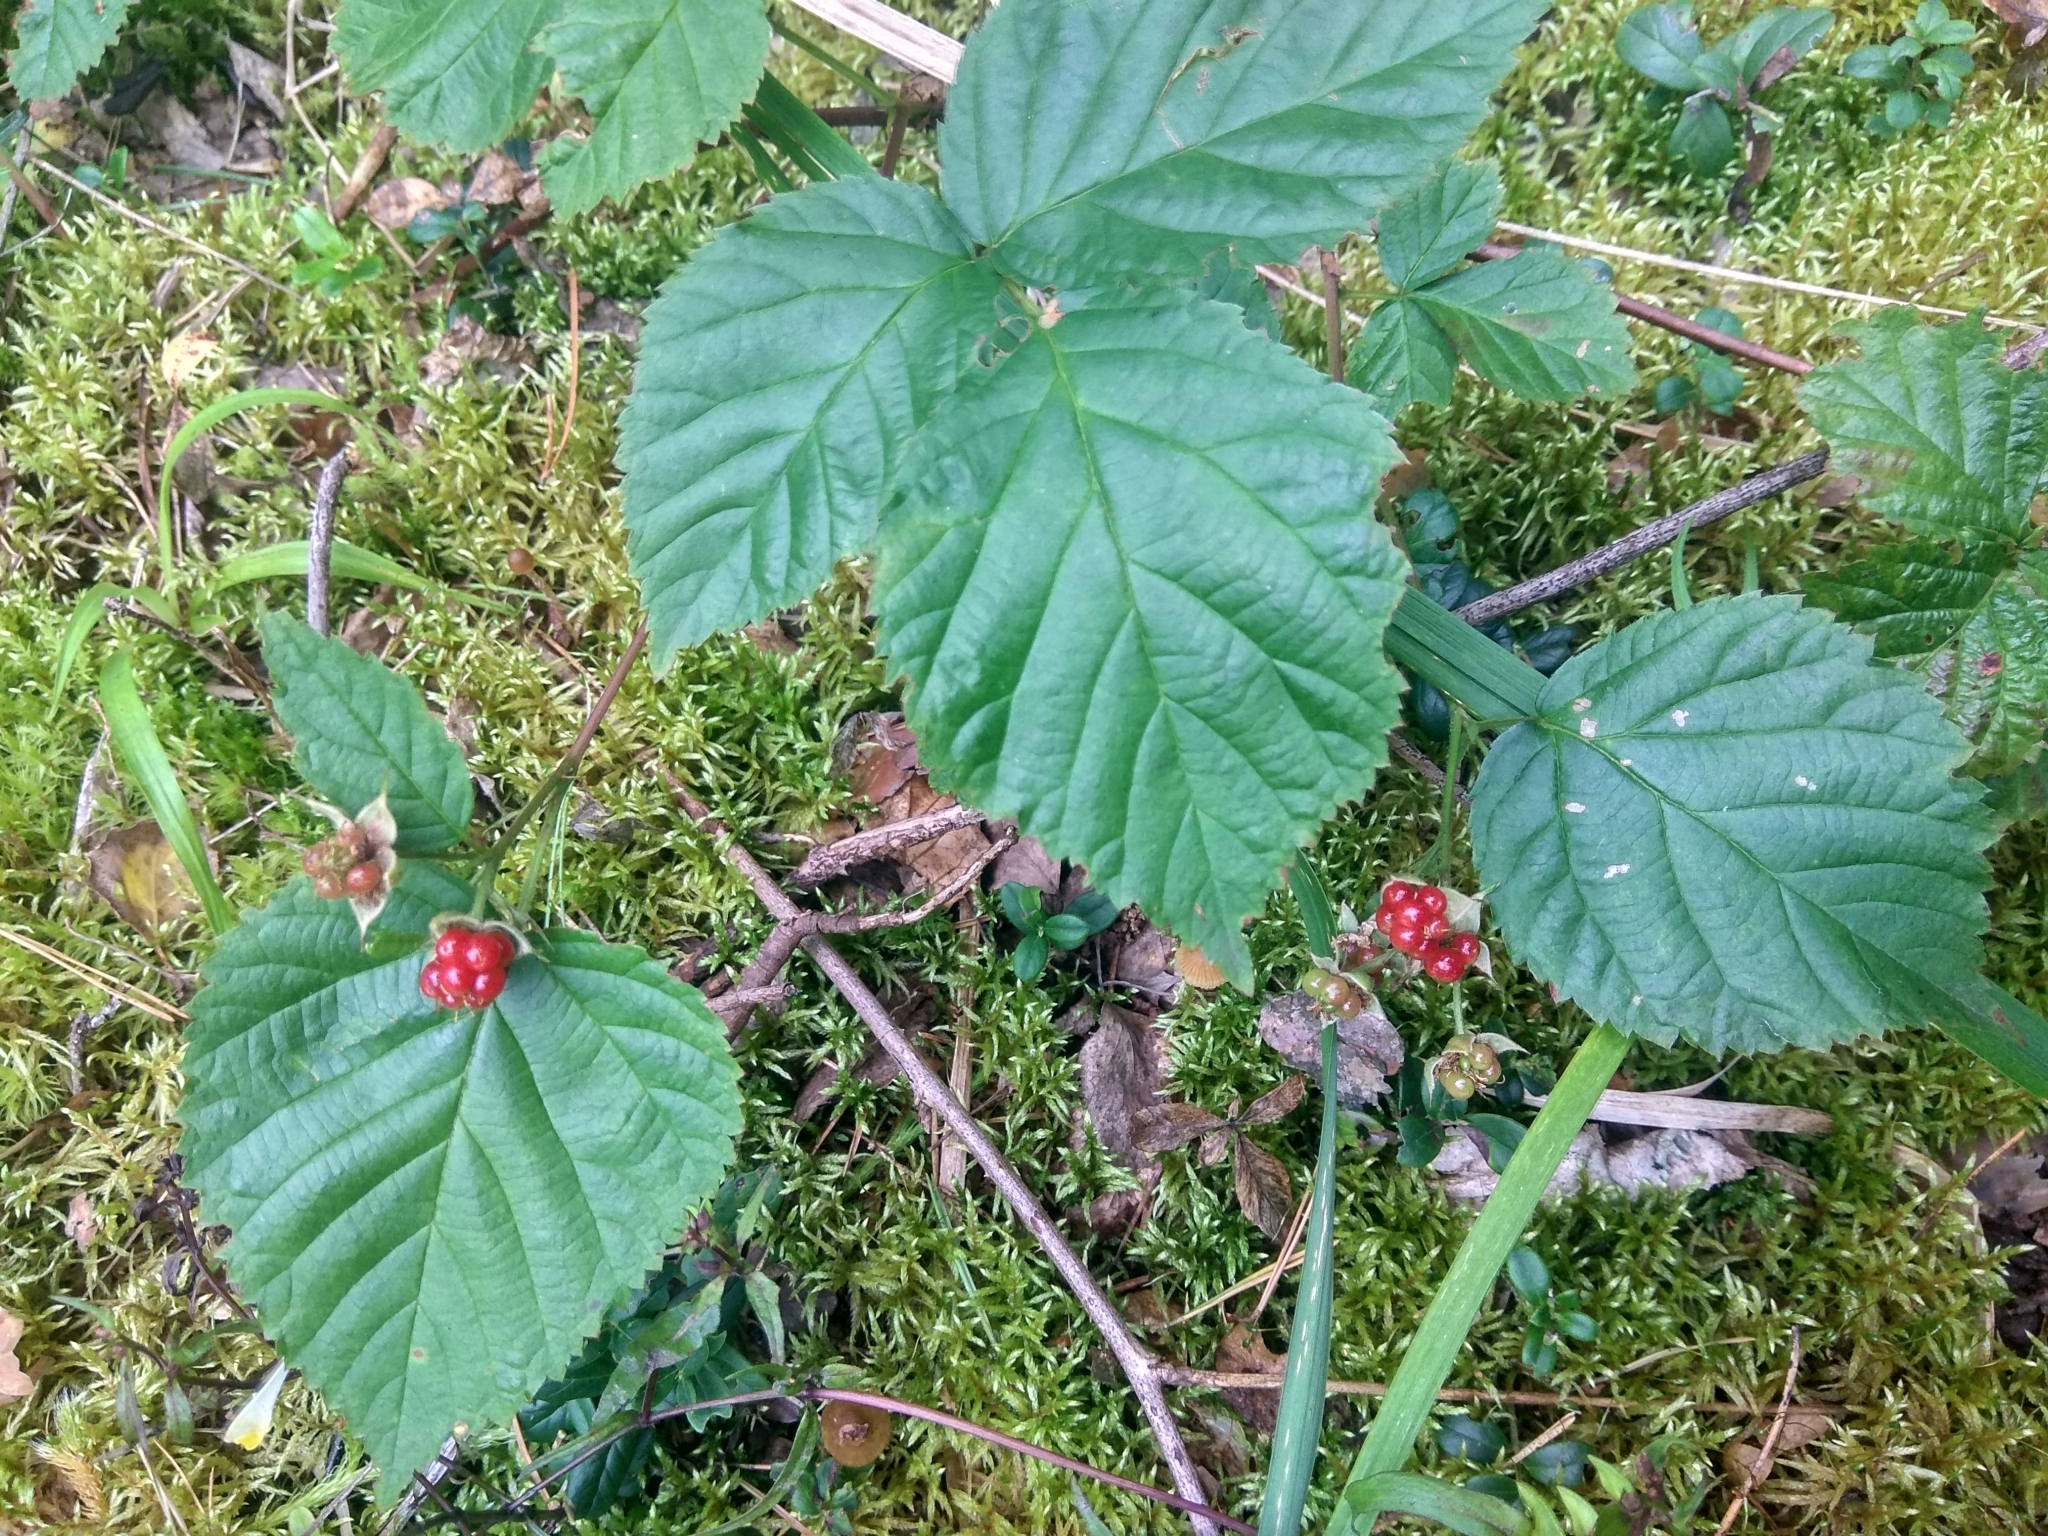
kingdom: Plantae
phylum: Tracheophyta
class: Magnoliopsida
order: Rosales
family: Rosaceae
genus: Rubus
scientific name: Rubus polonicus
